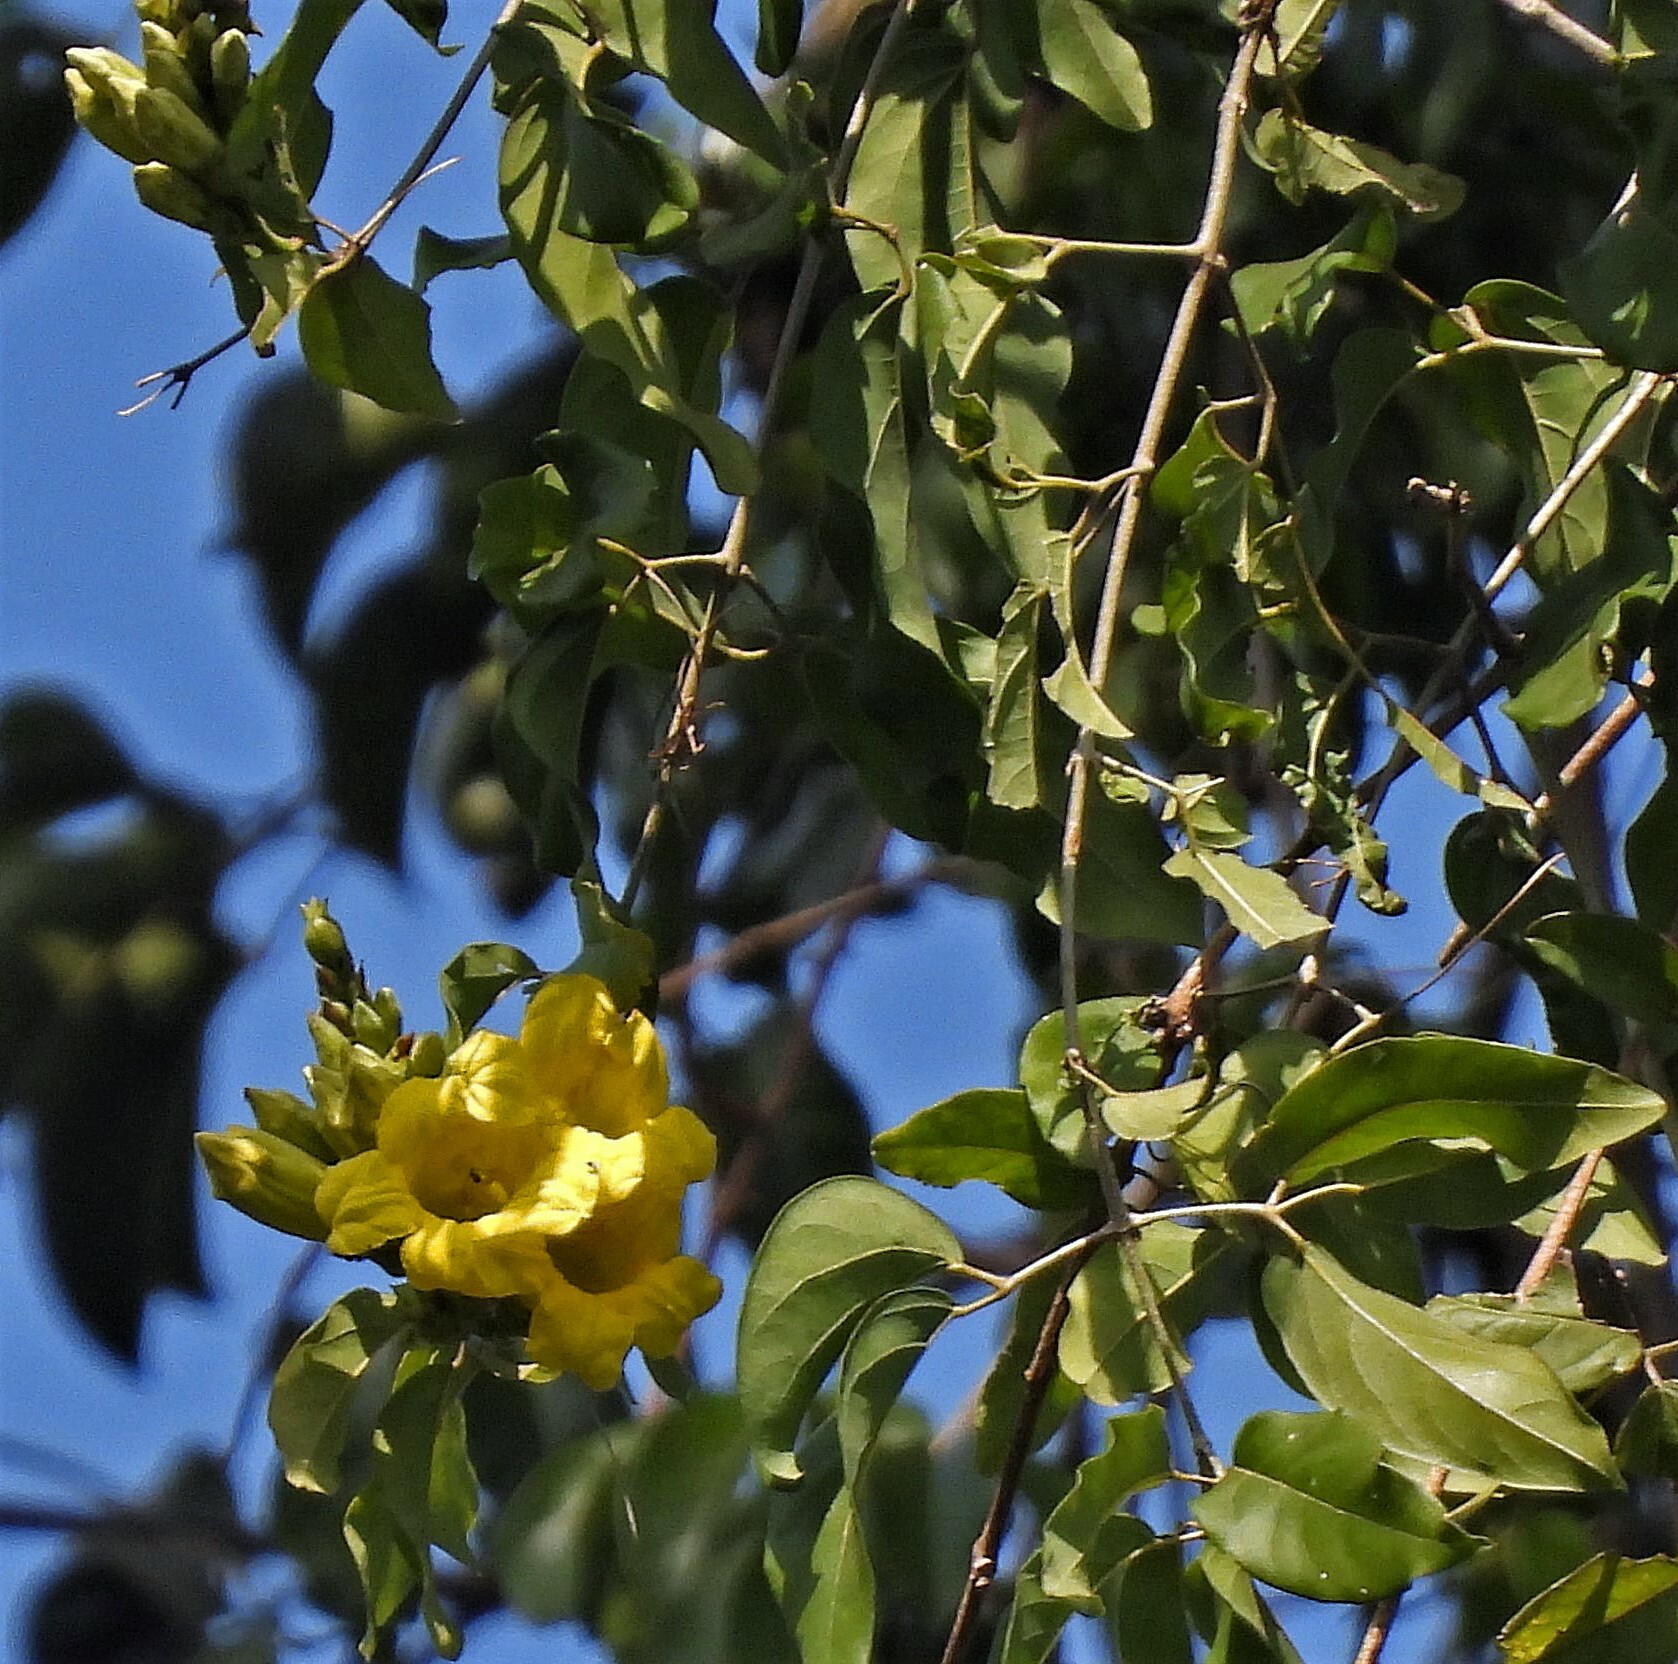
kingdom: Plantae
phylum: Tracheophyta
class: Magnoliopsida
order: Lamiales
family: Bignoniaceae
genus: Adenocalymma
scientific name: Adenocalymma paulistarum
